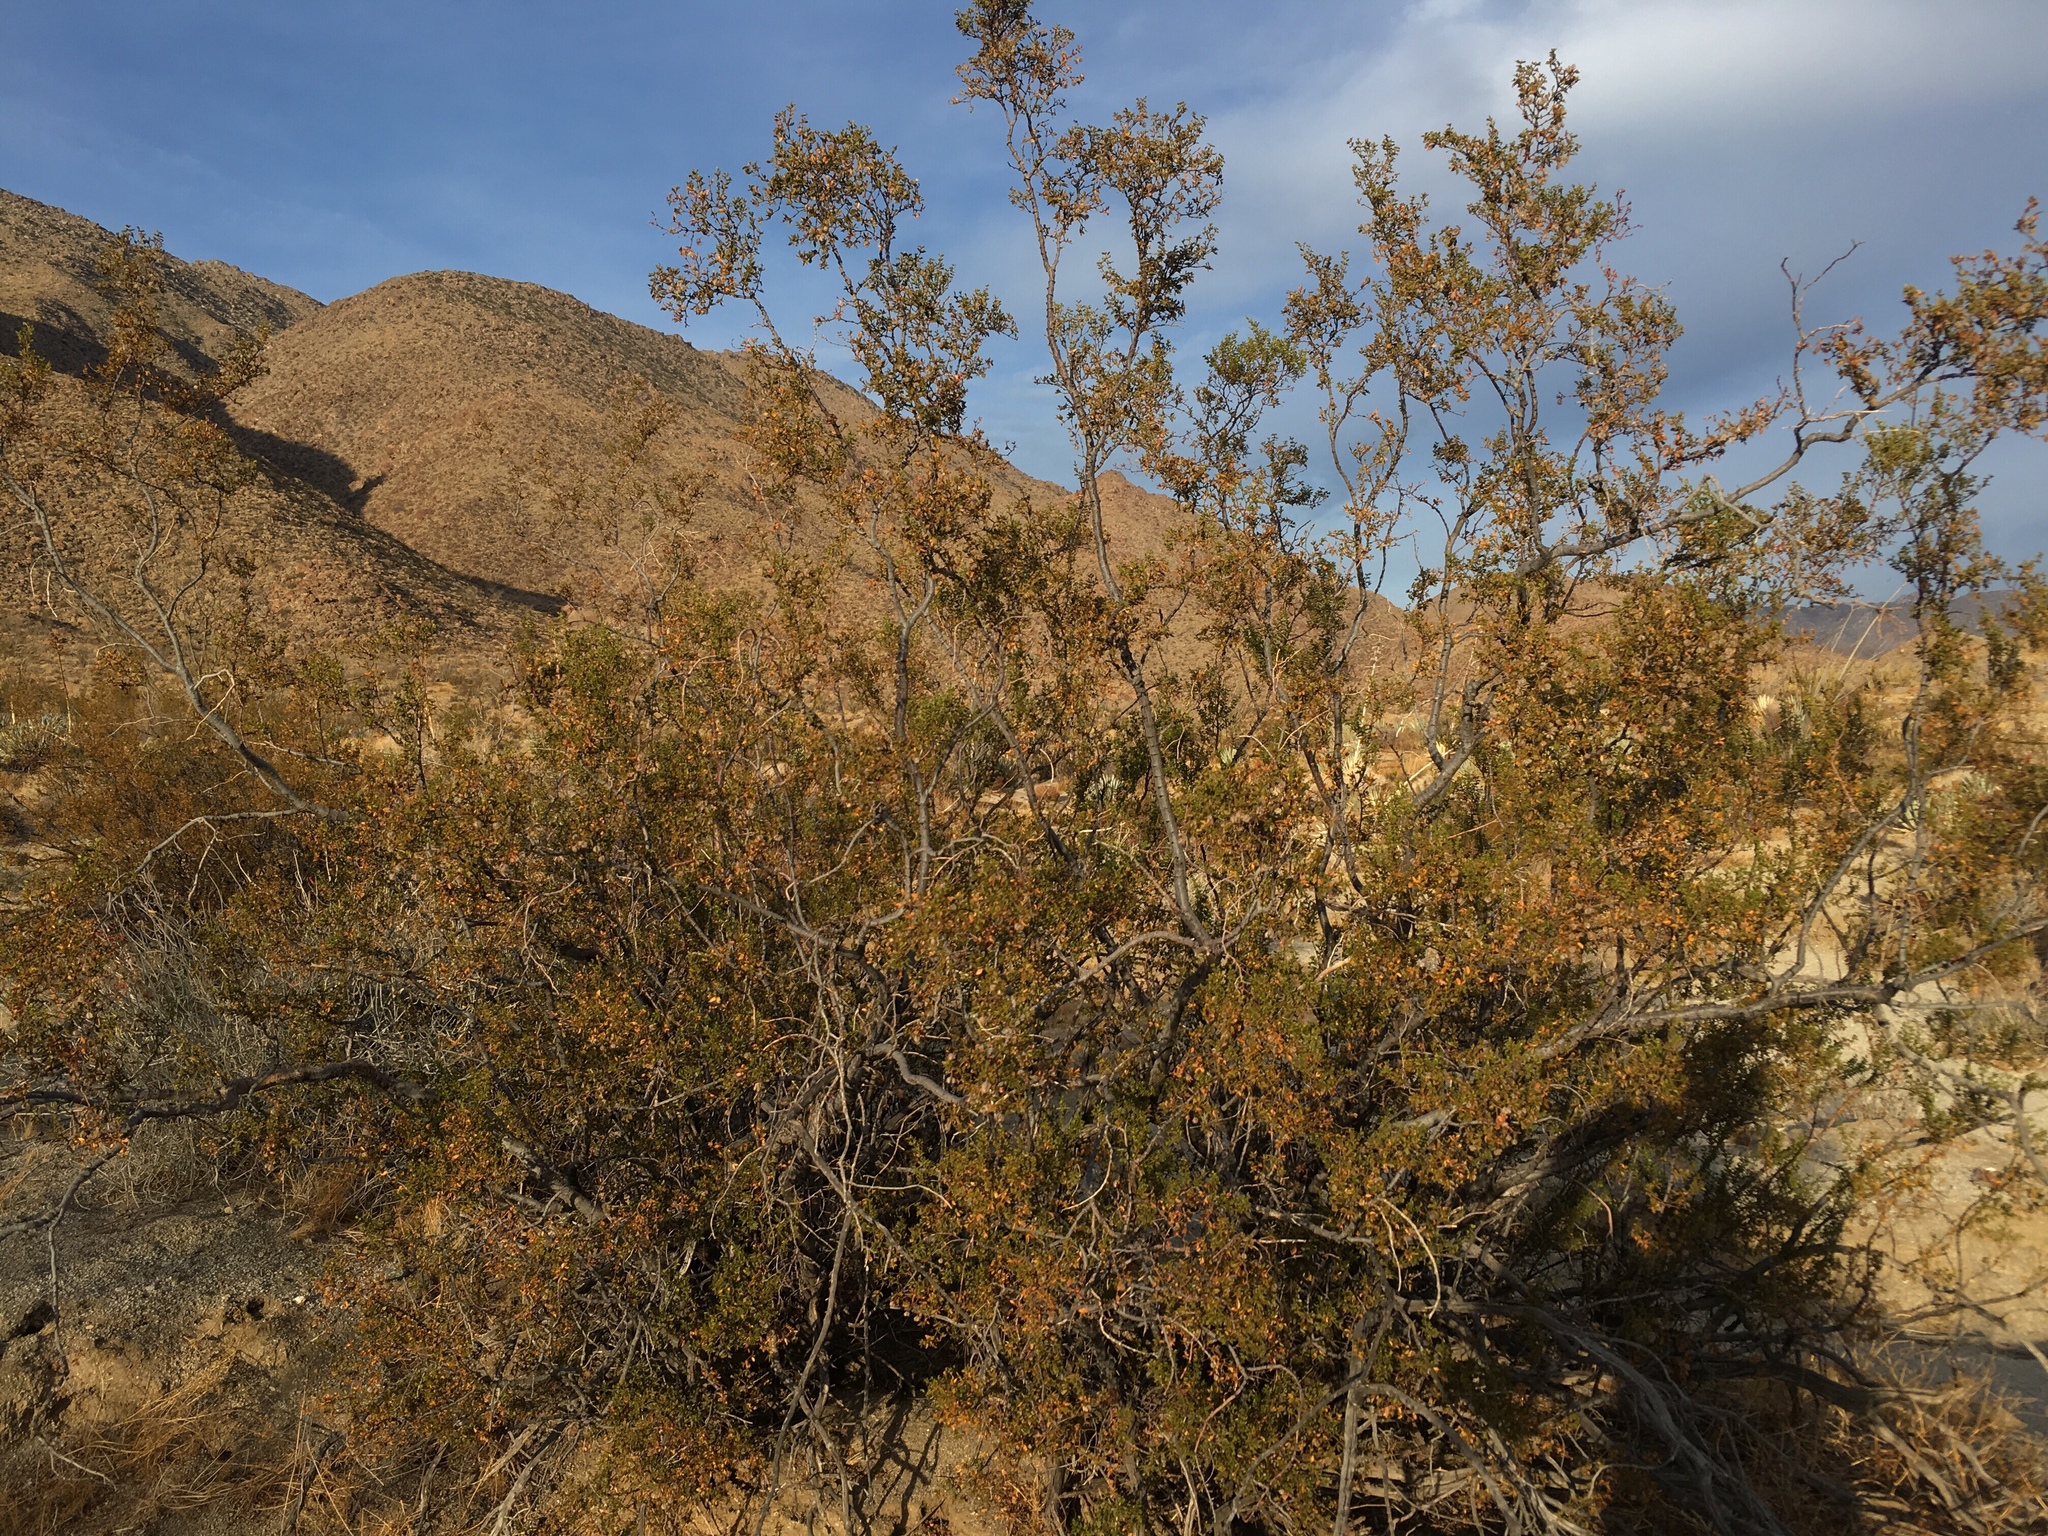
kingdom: Animalia
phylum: Arthropoda
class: Insecta
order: Diptera
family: Cecidomyiidae
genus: Asphondylia
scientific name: Asphondylia auripila
